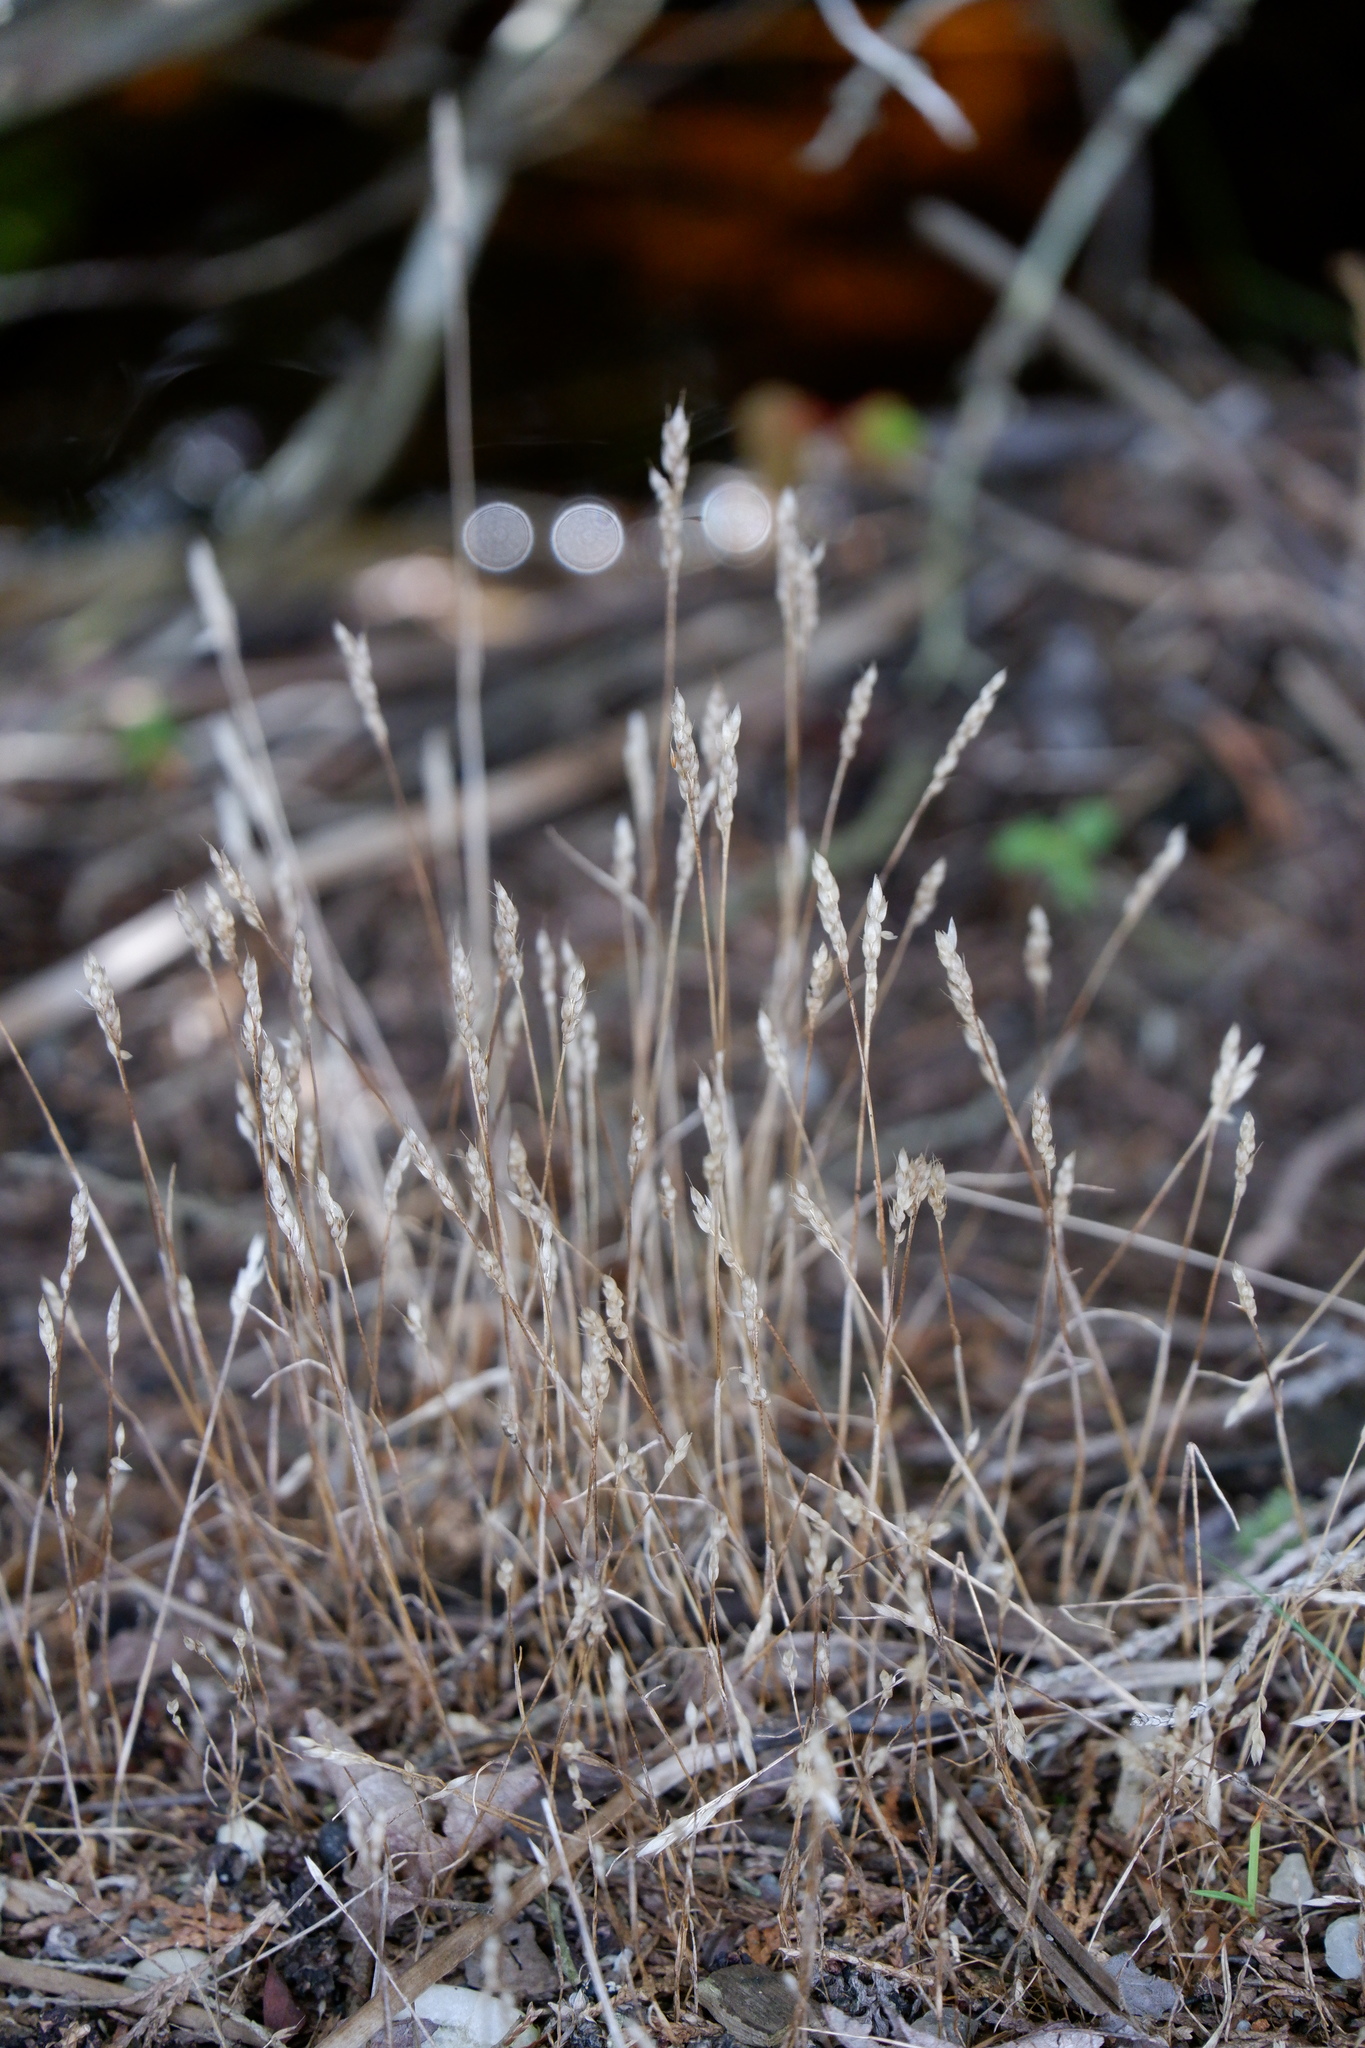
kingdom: Plantae
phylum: Tracheophyta
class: Liliopsida
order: Poales
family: Poaceae
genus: Aira
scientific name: Aira praecox
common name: Early hair-grass
